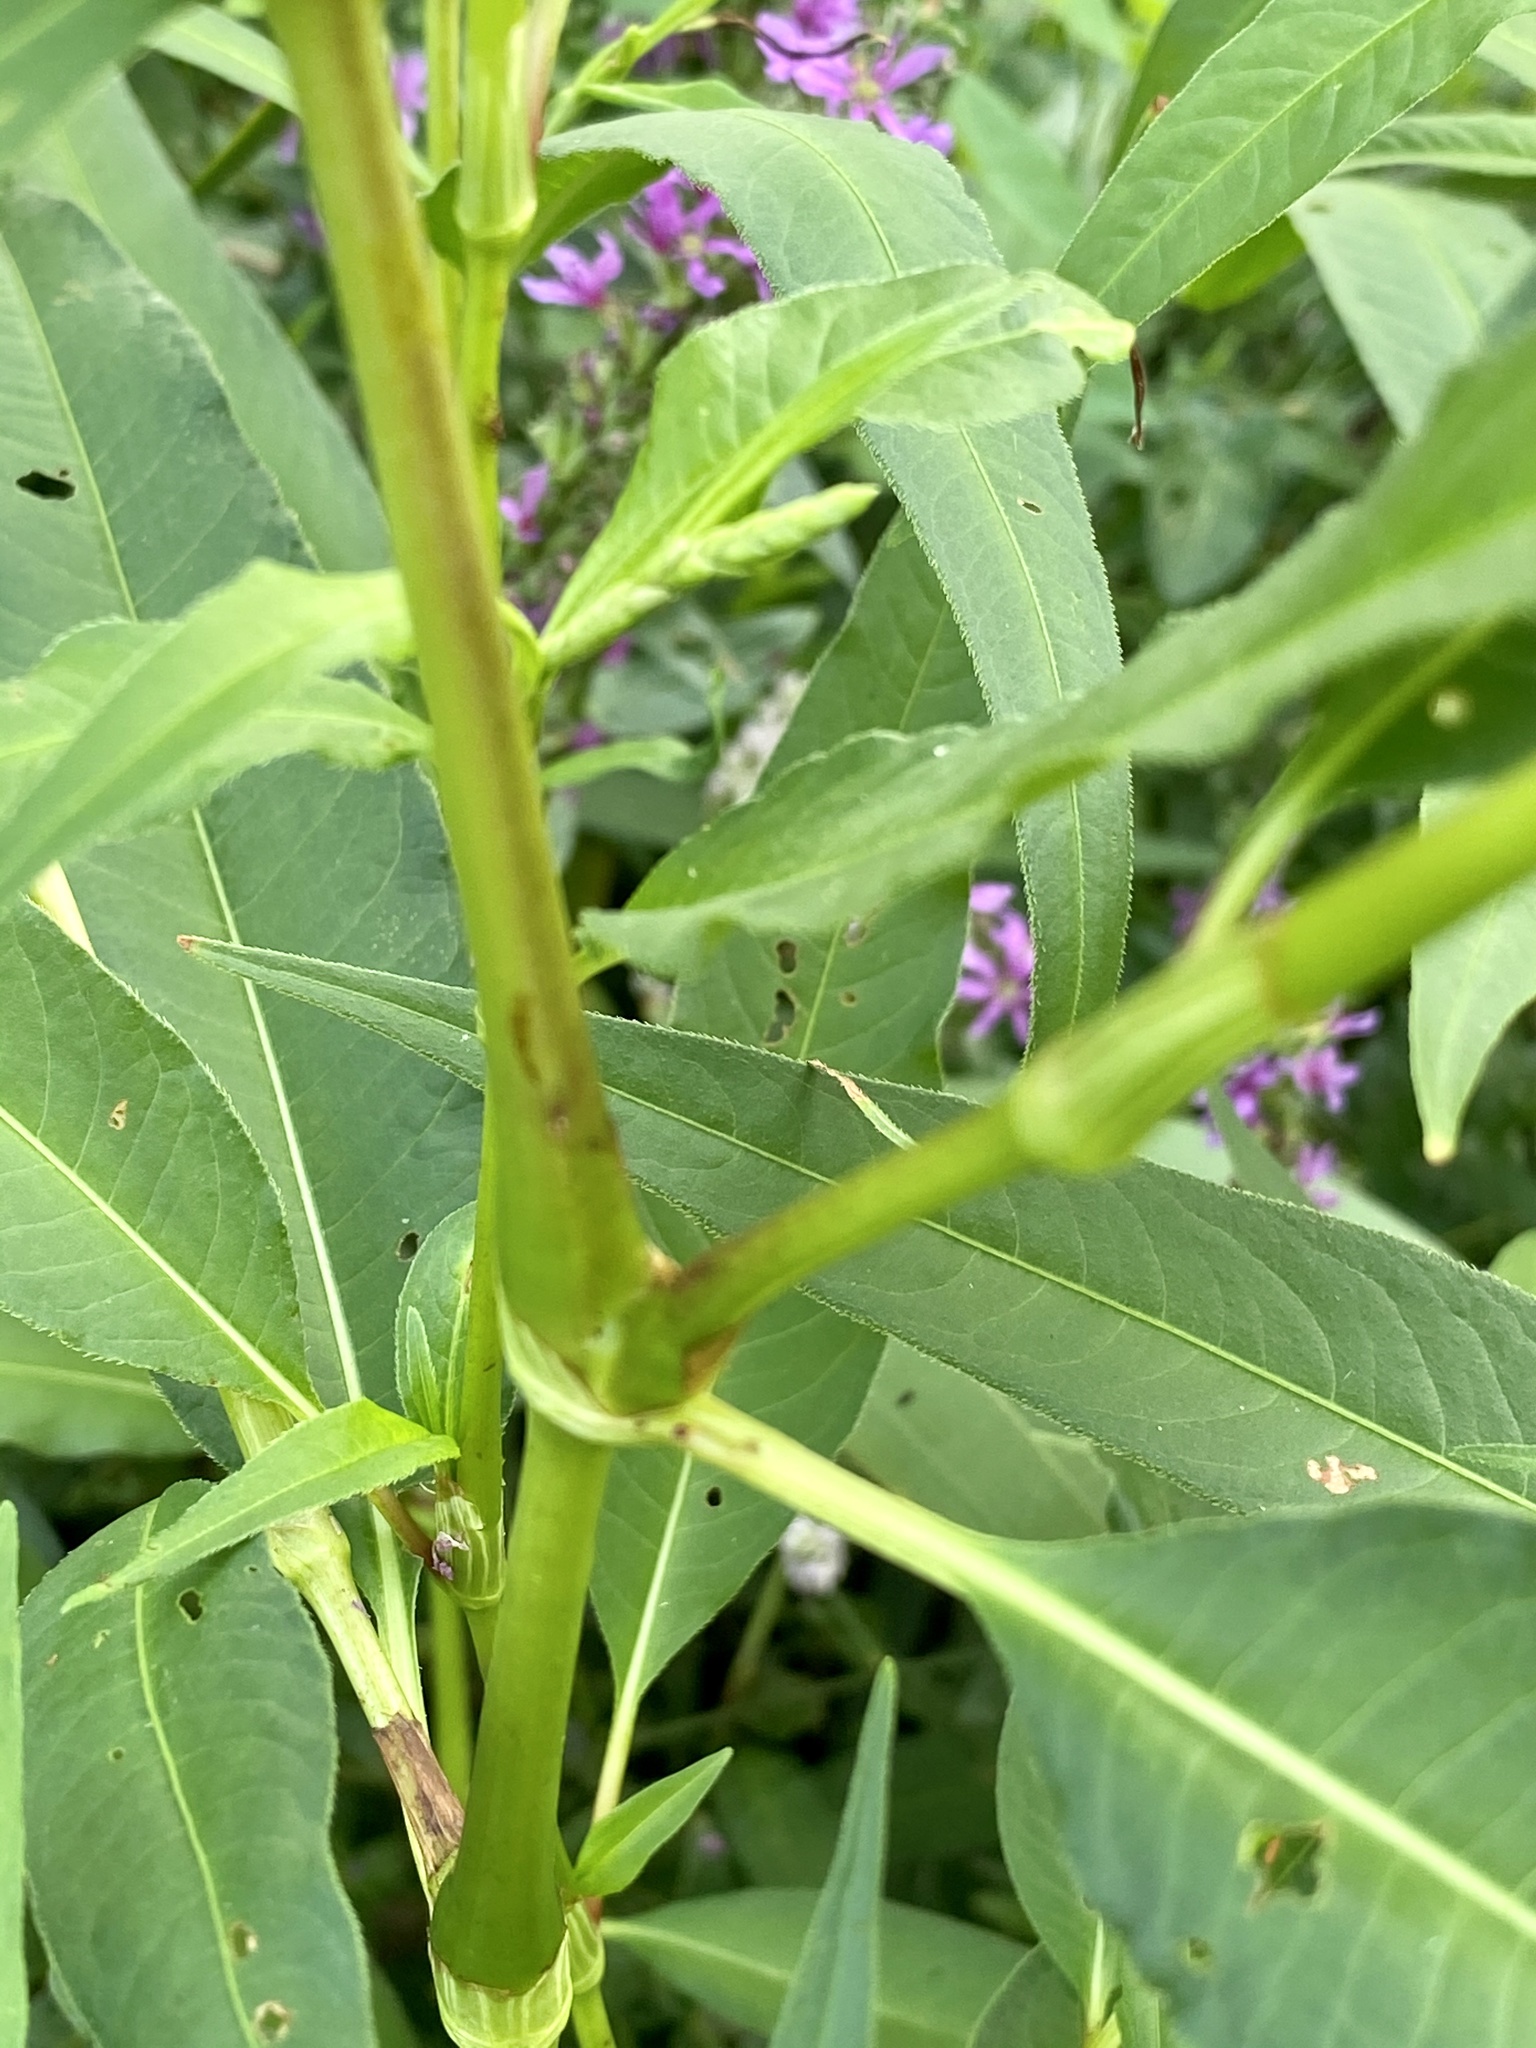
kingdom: Plantae
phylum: Tracheophyta
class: Magnoliopsida
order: Caryophyllales
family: Polygonaceae
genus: Persicaria
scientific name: Persicaria pensylvanica
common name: Pinkweed
